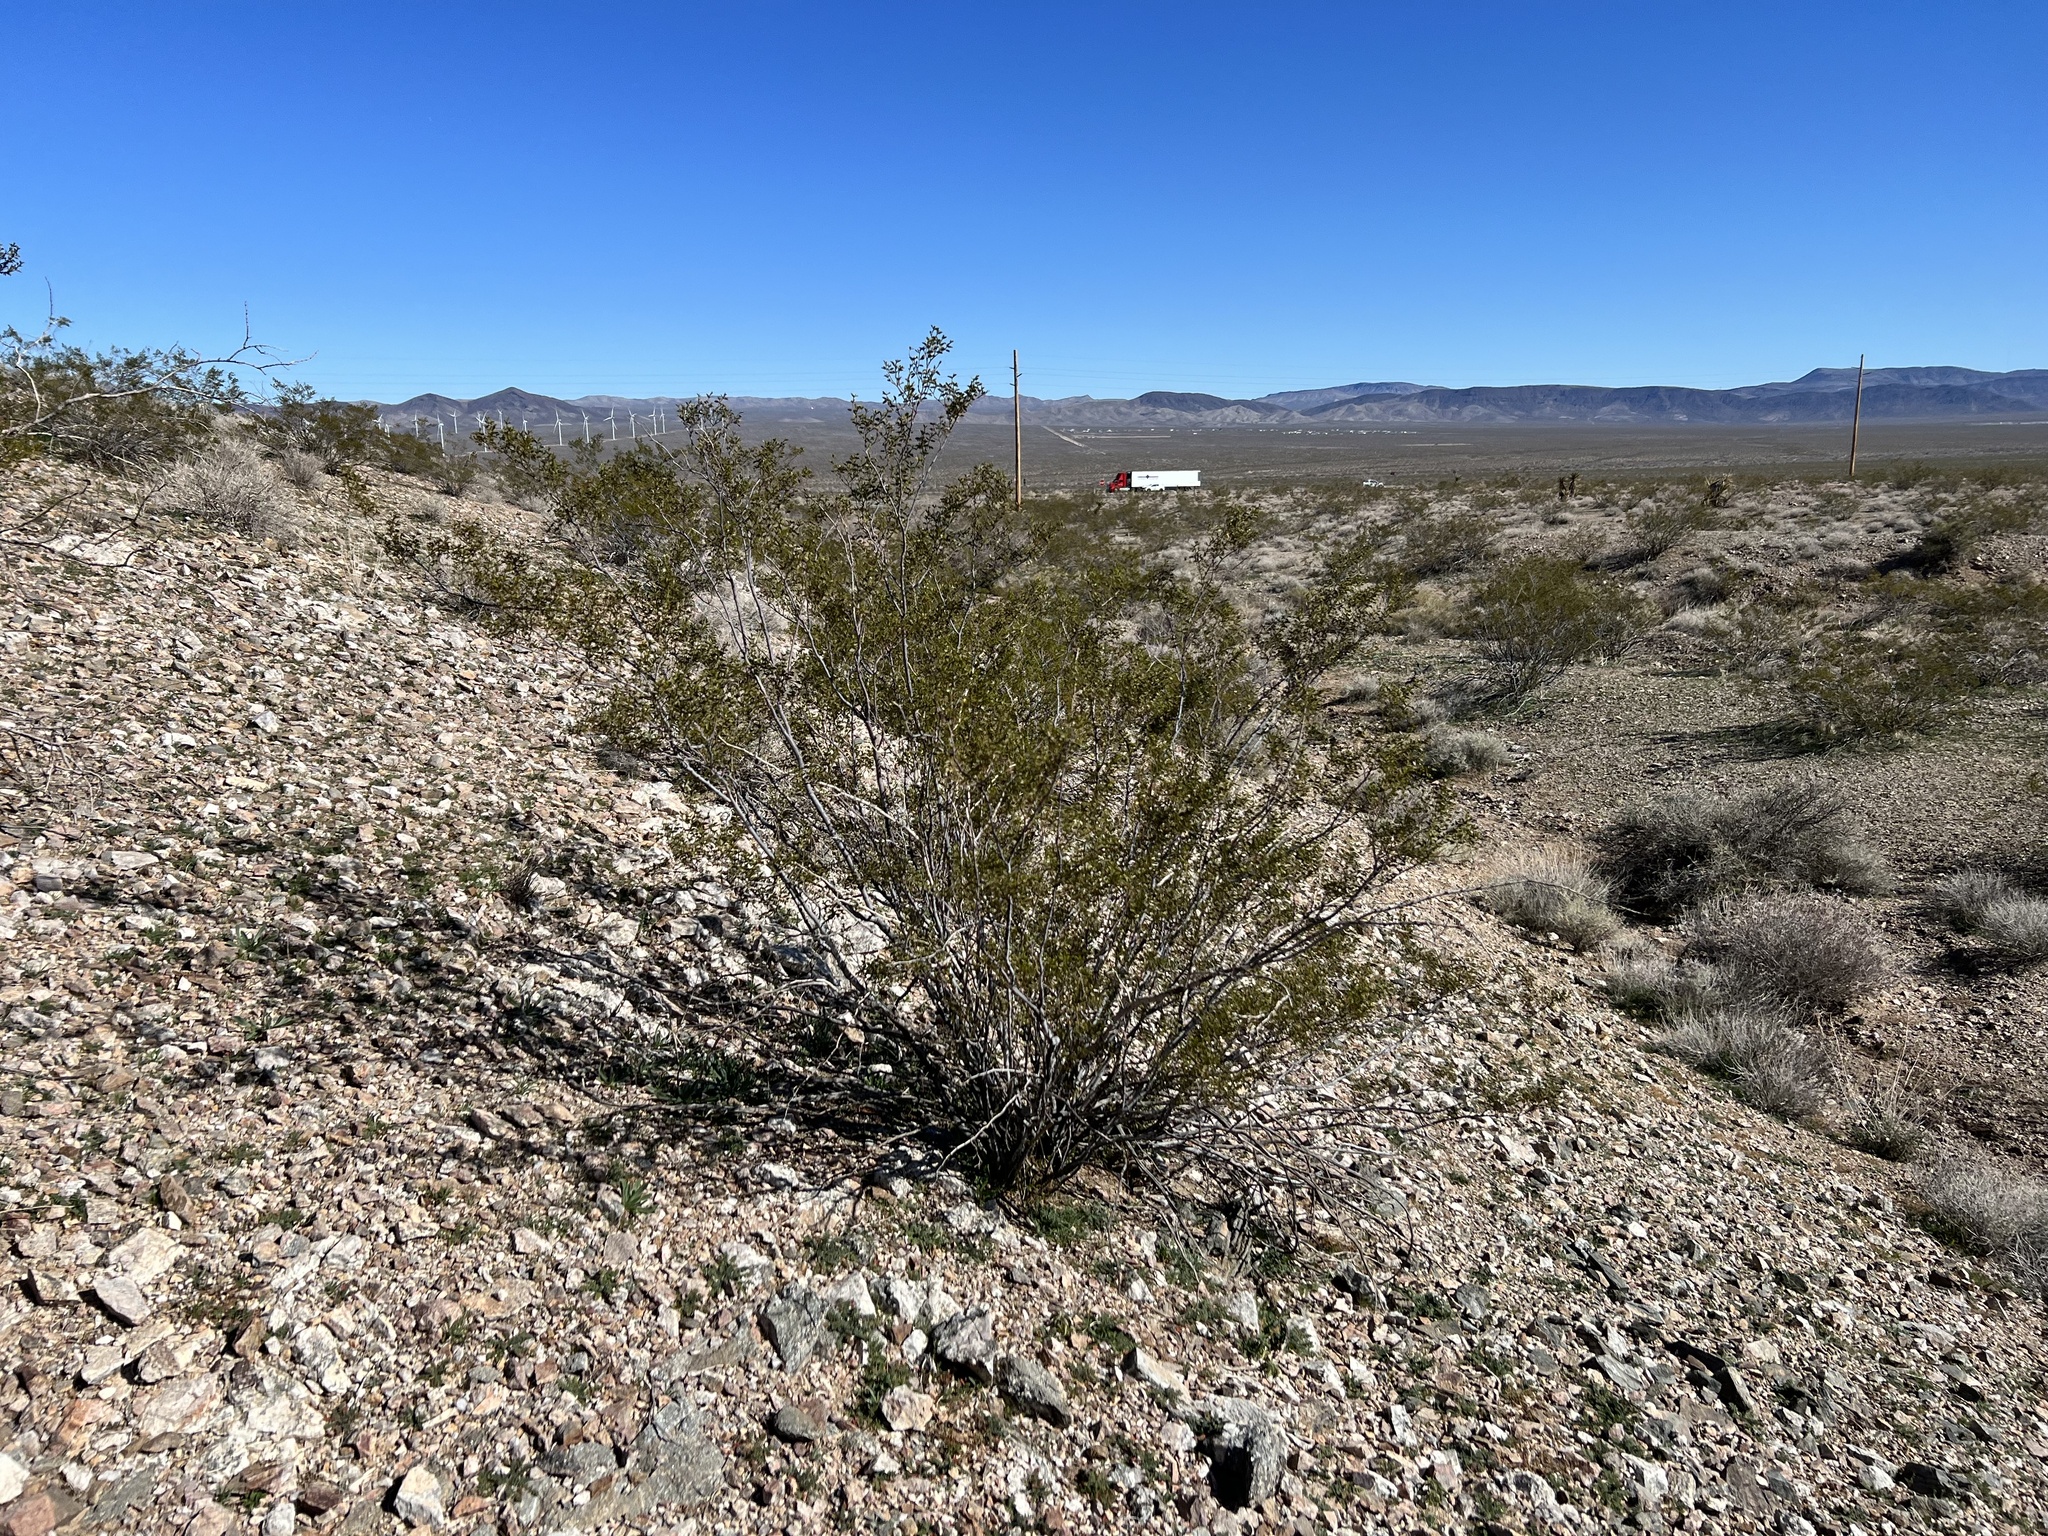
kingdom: Plantae
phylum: Tracheophyta
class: Magnoliopsida
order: Zygophyllales
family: Zygophyllaceae
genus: Larrea
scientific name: Larrea tridentata
